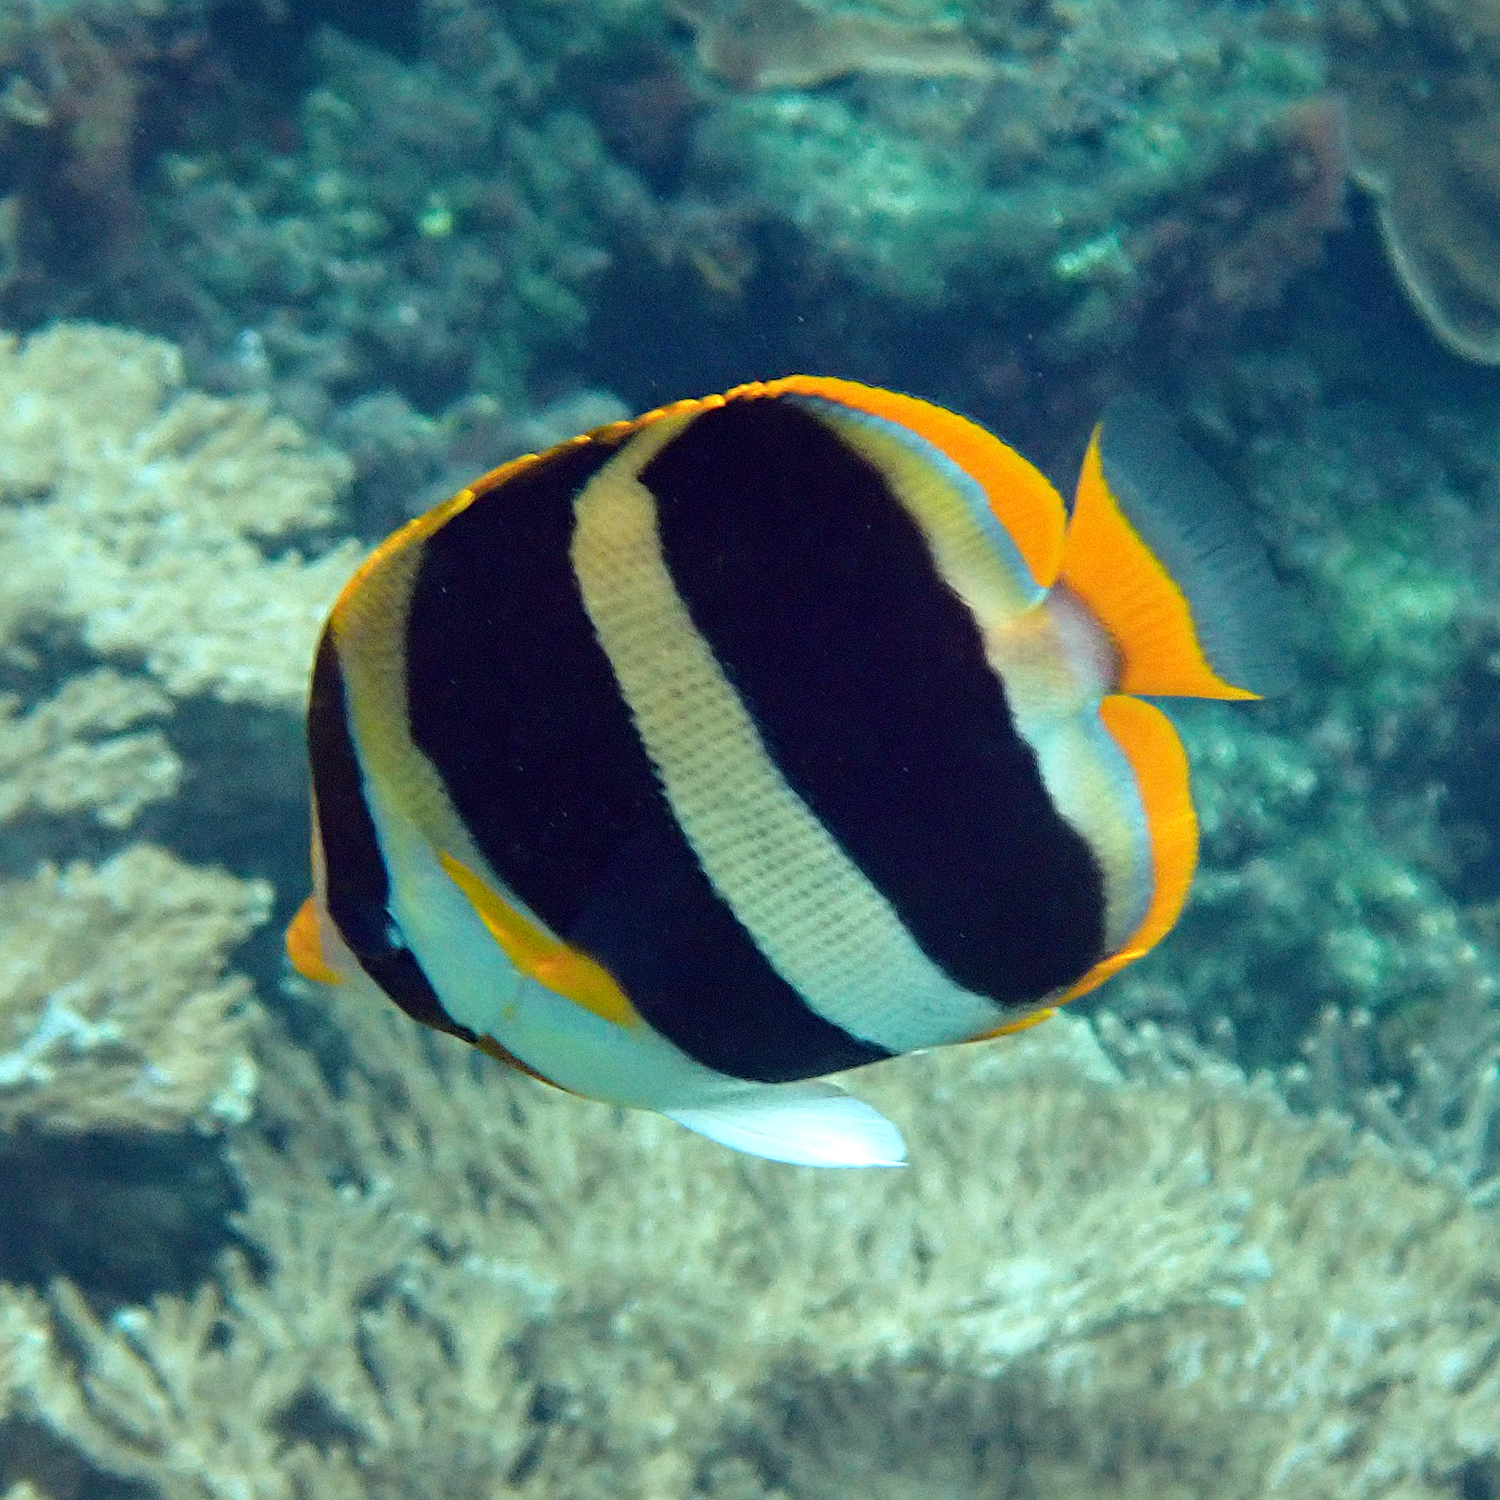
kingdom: Animalia
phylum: Chordata
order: Perciformes
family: Chaetodontidae
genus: Chaetodon
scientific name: Chaetodon tricinctus
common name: Three-striped butterflyfish
